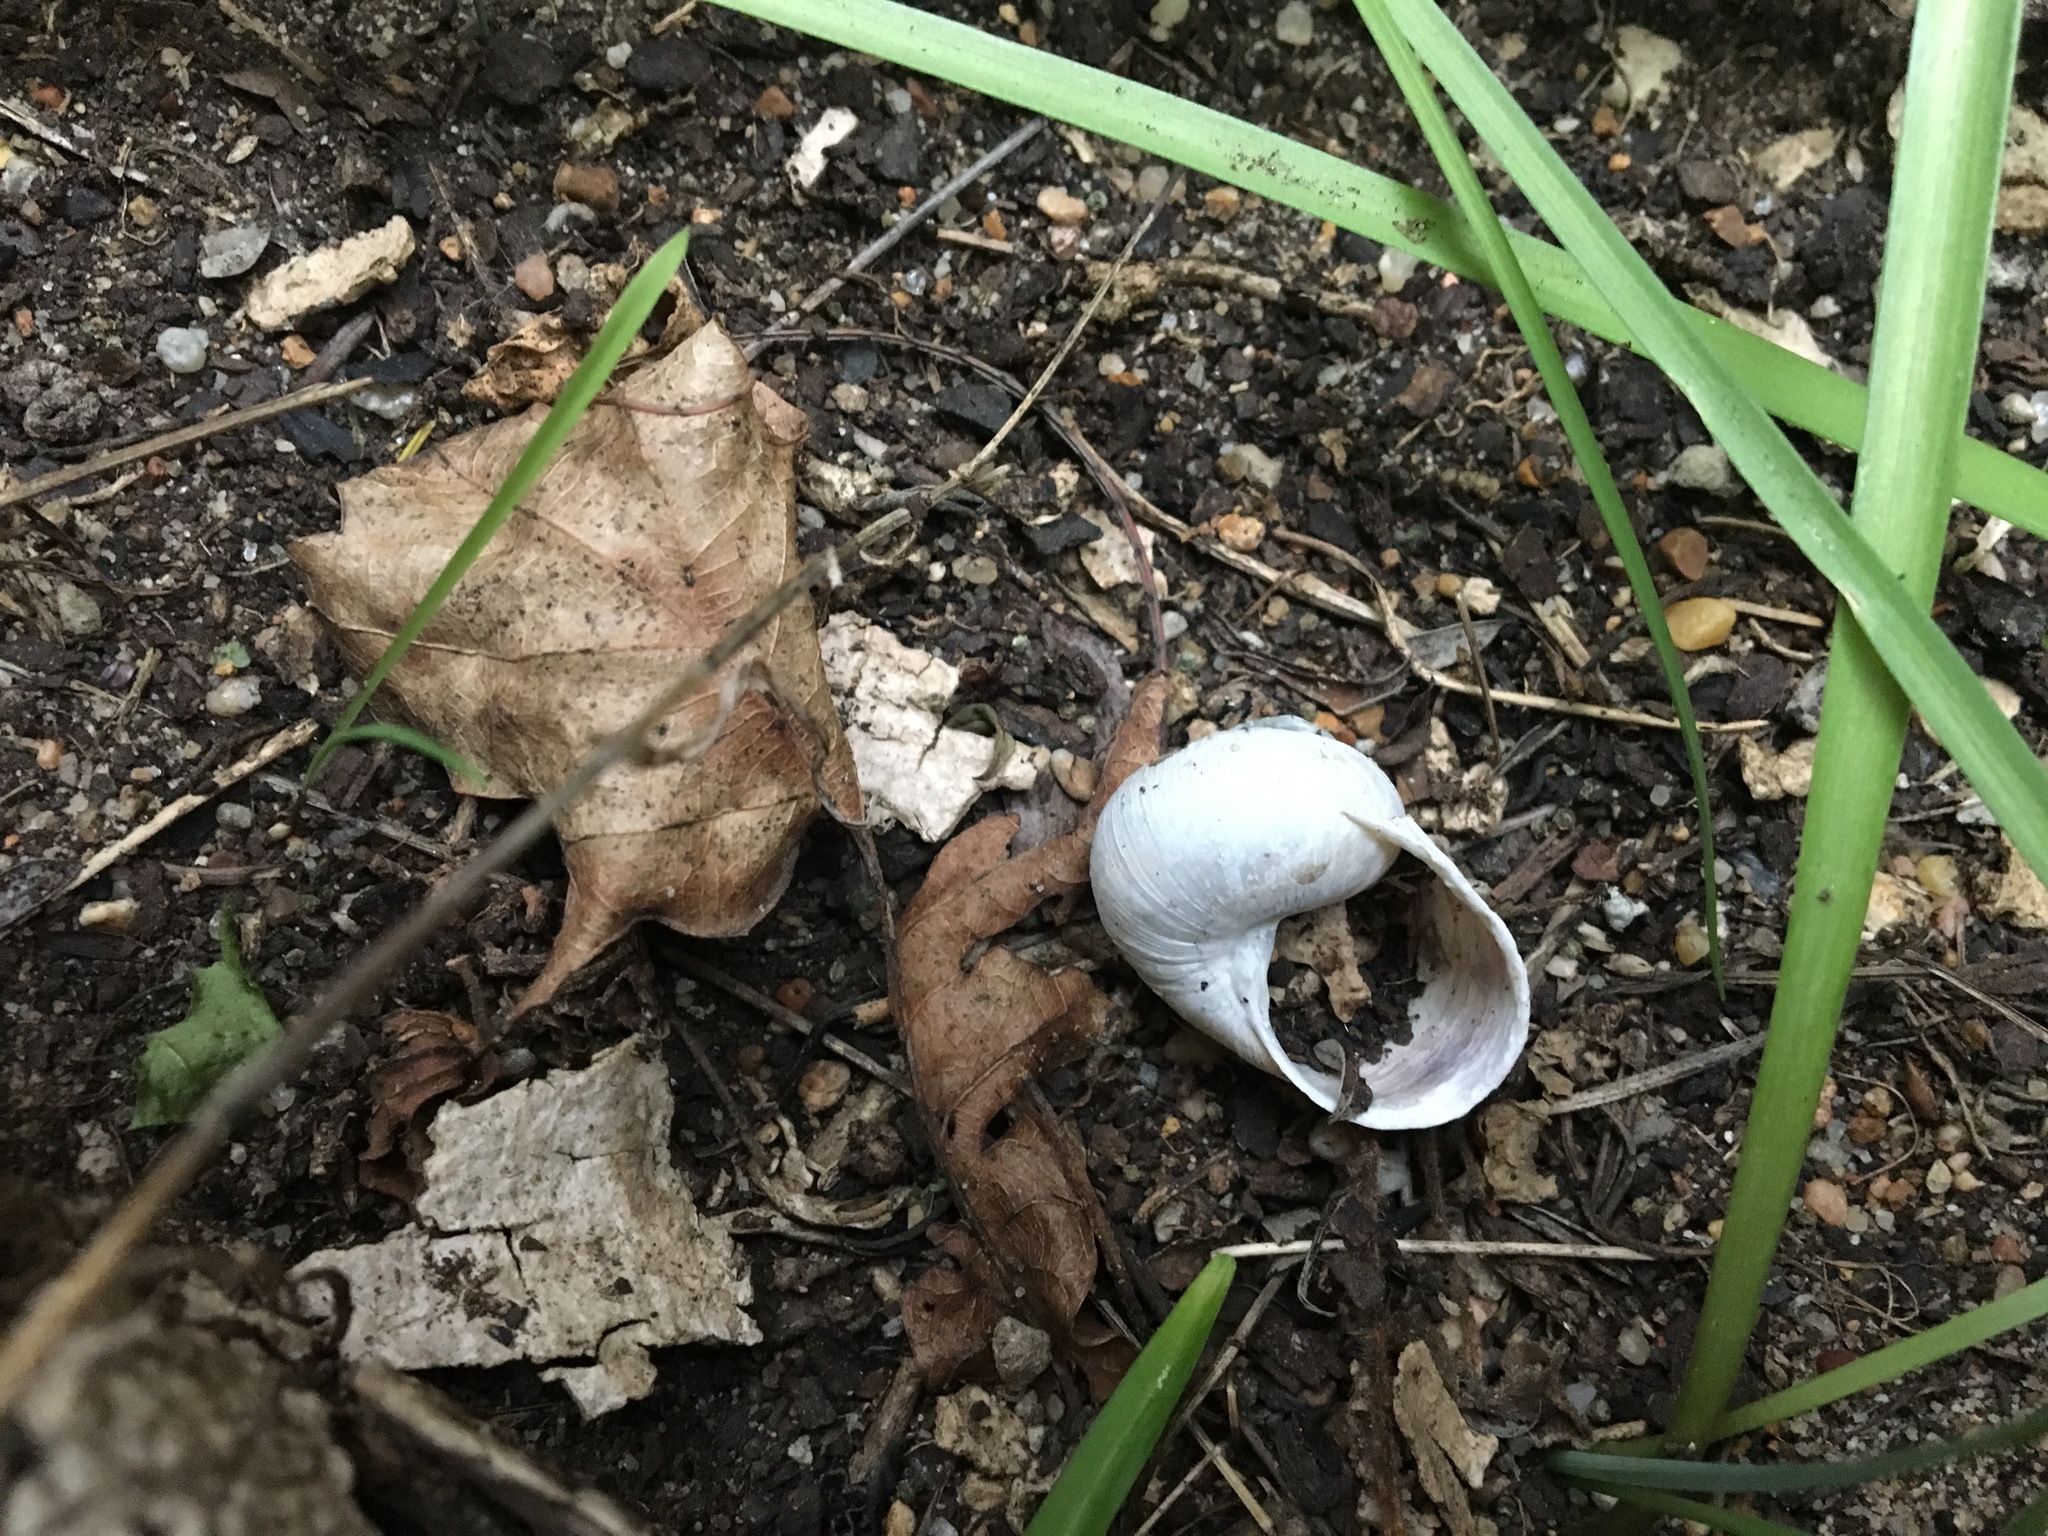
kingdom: Animalia
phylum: Mollusca
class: Gastropoda
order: Stylommatophora
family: Helicidae
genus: Cornu
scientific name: Cornu aspersum
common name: Brown garden snail
